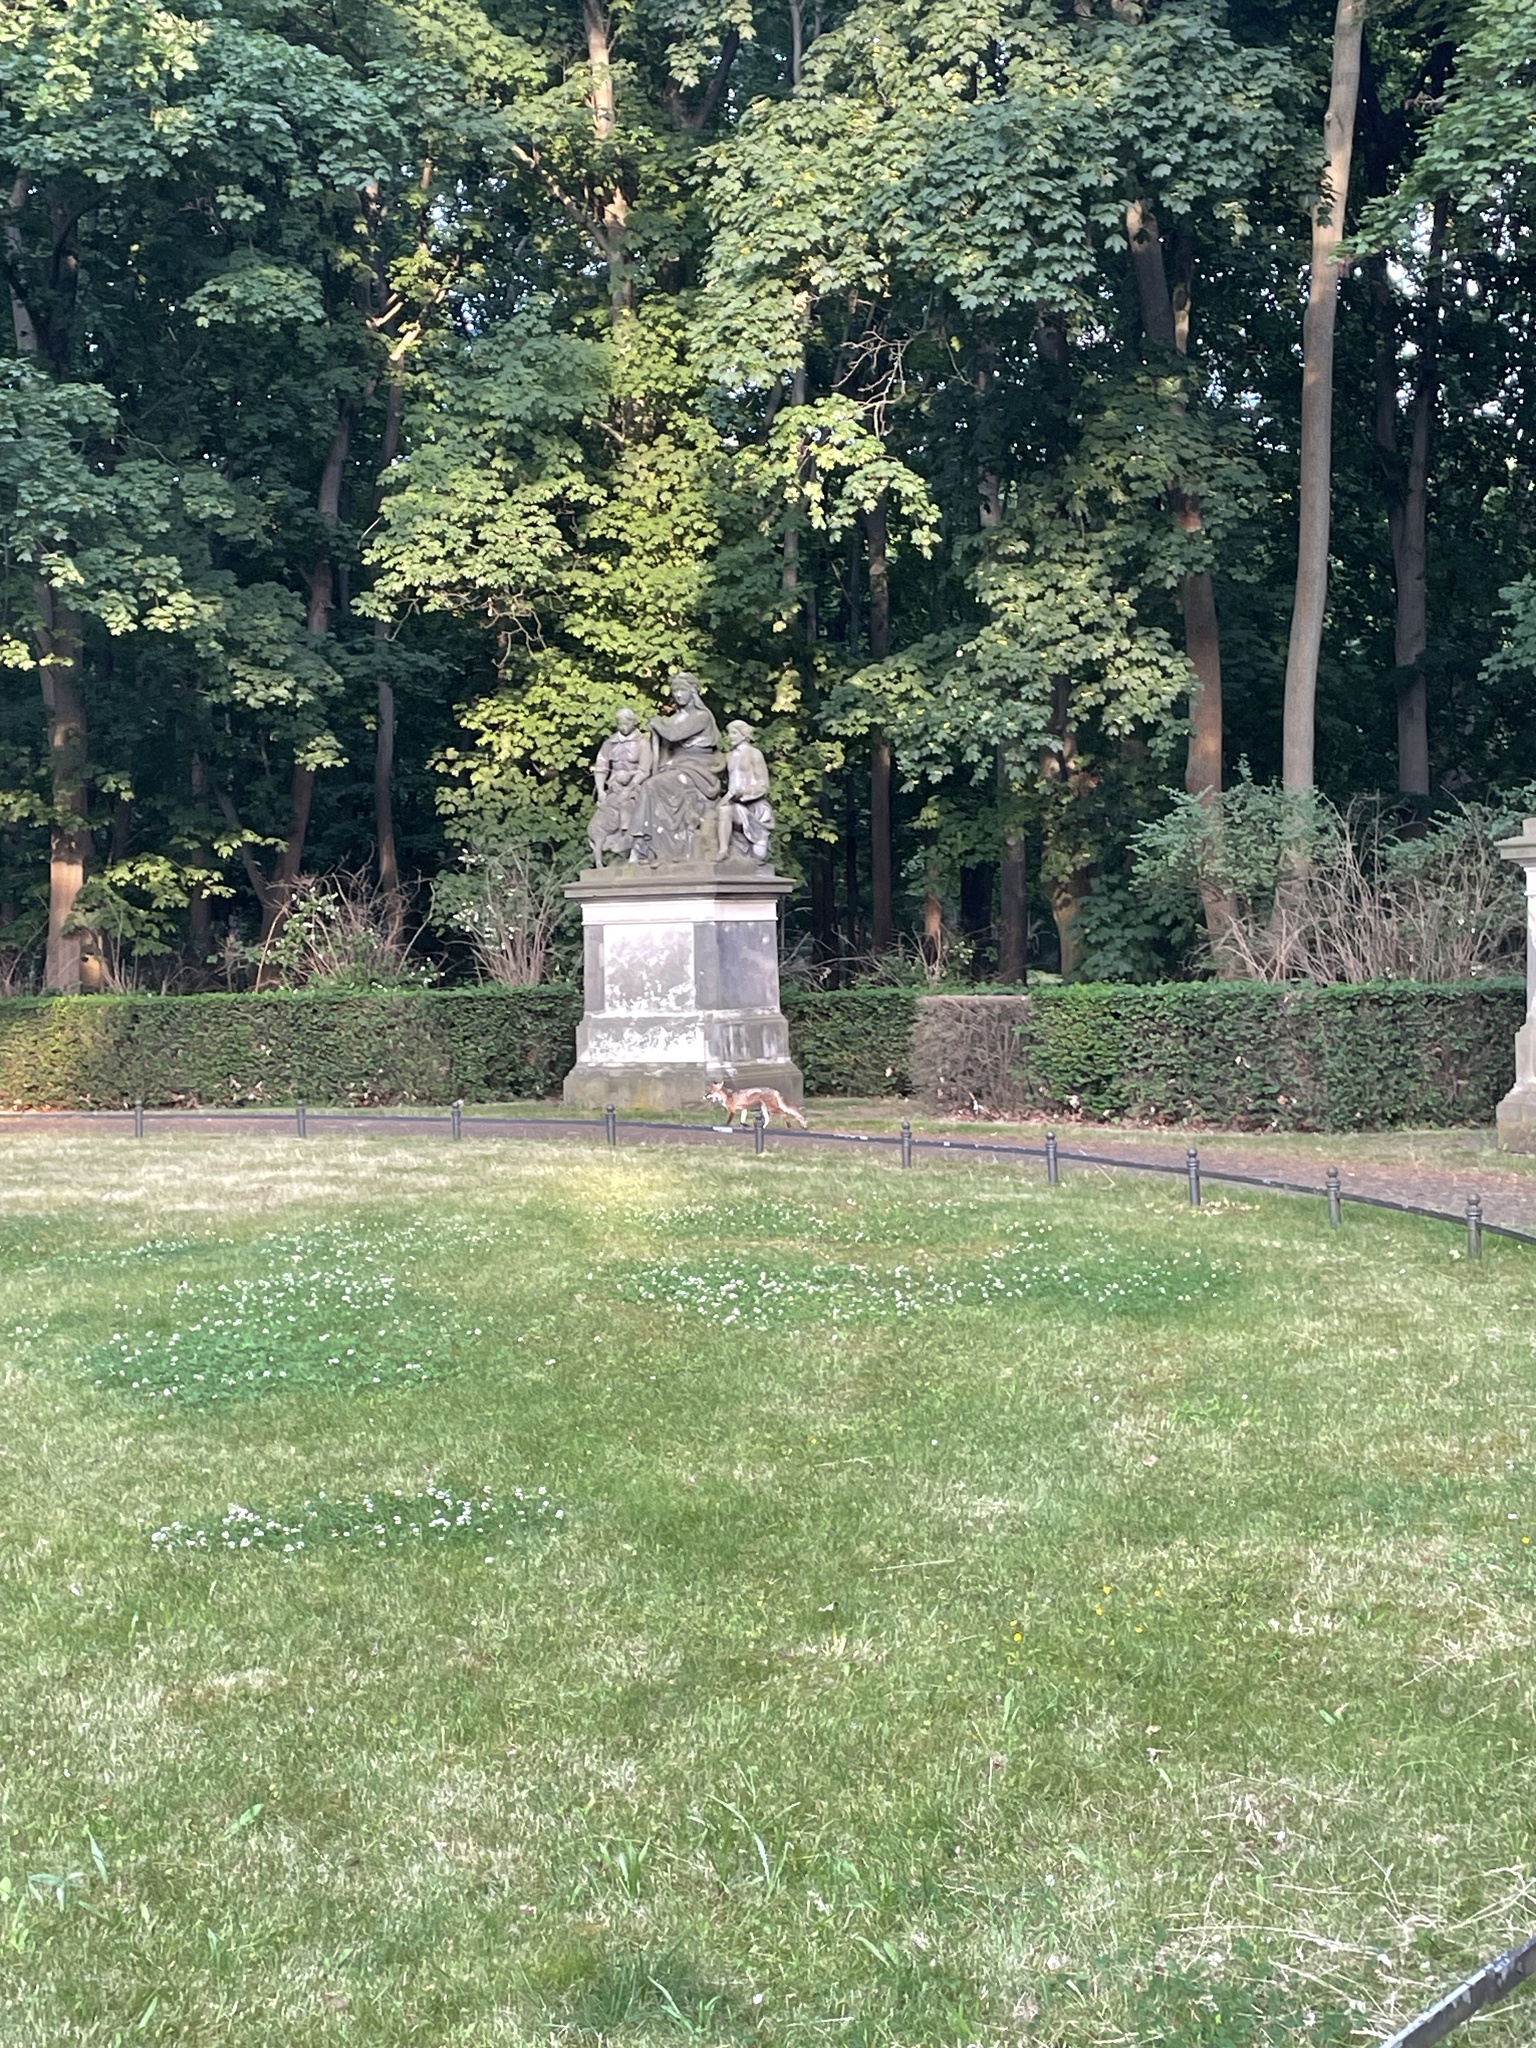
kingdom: Animalia
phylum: Chordata
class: Mammalia
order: Carnivora
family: Canidae
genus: Vulpes
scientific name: Vulpes vulpes
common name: Red fox
